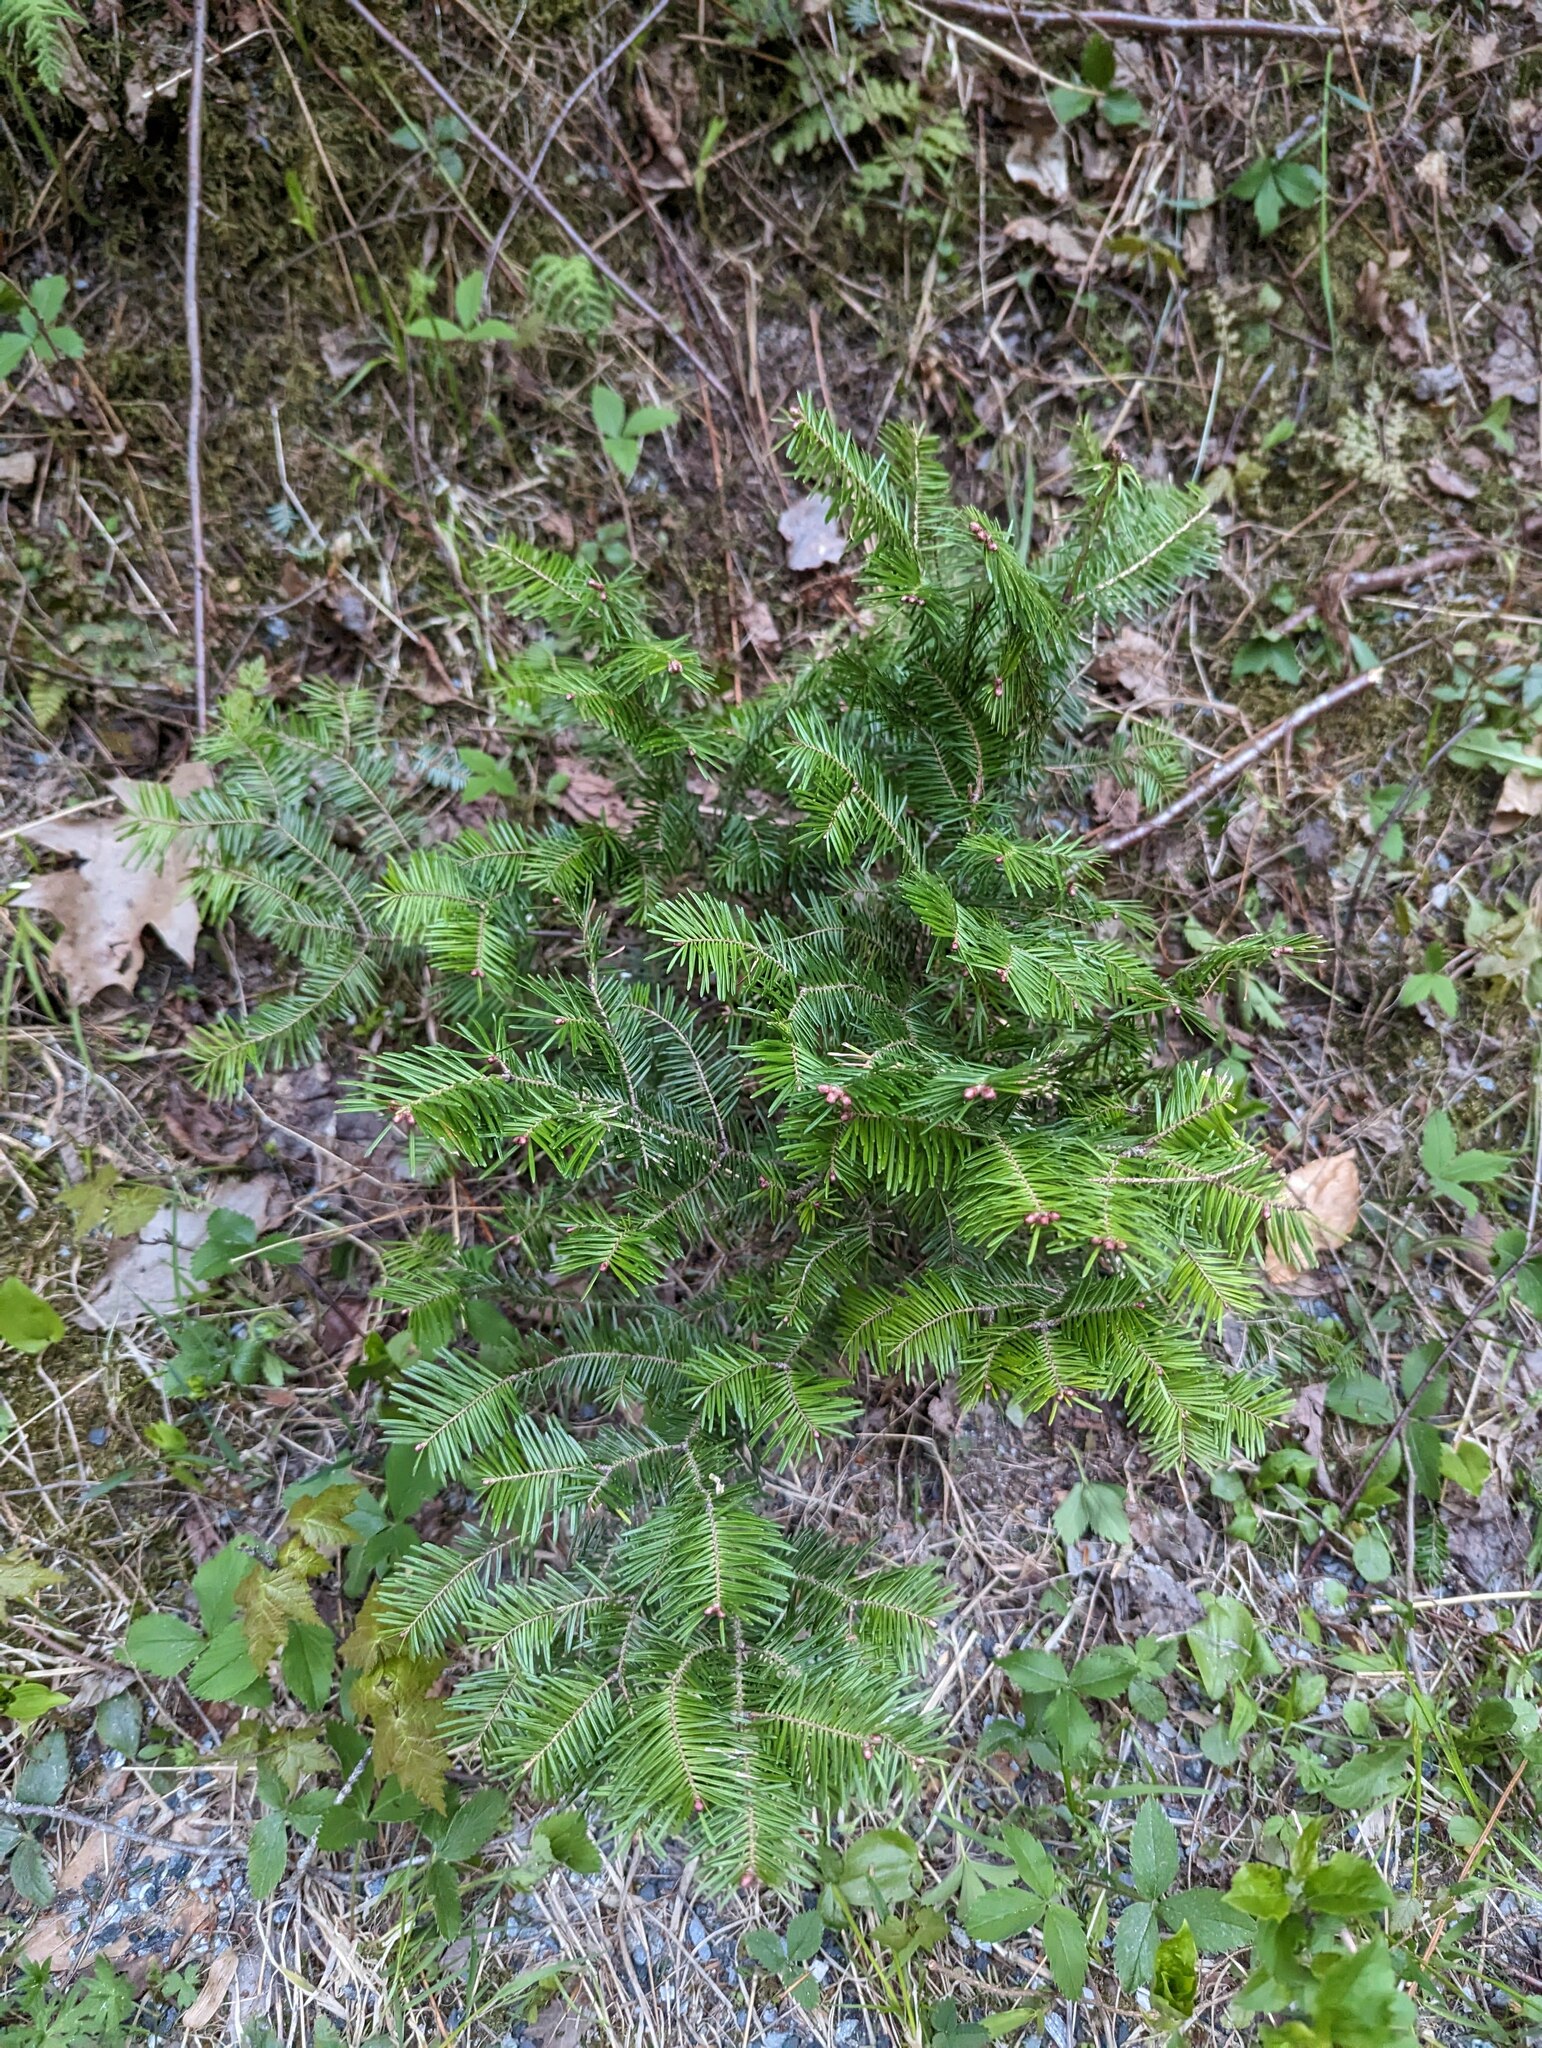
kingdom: Plantae
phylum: Tracheophyta
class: Pinopsida
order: Pinales
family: Pinaceae
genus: Abies
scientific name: Abies balsamea
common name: Balsam fir
